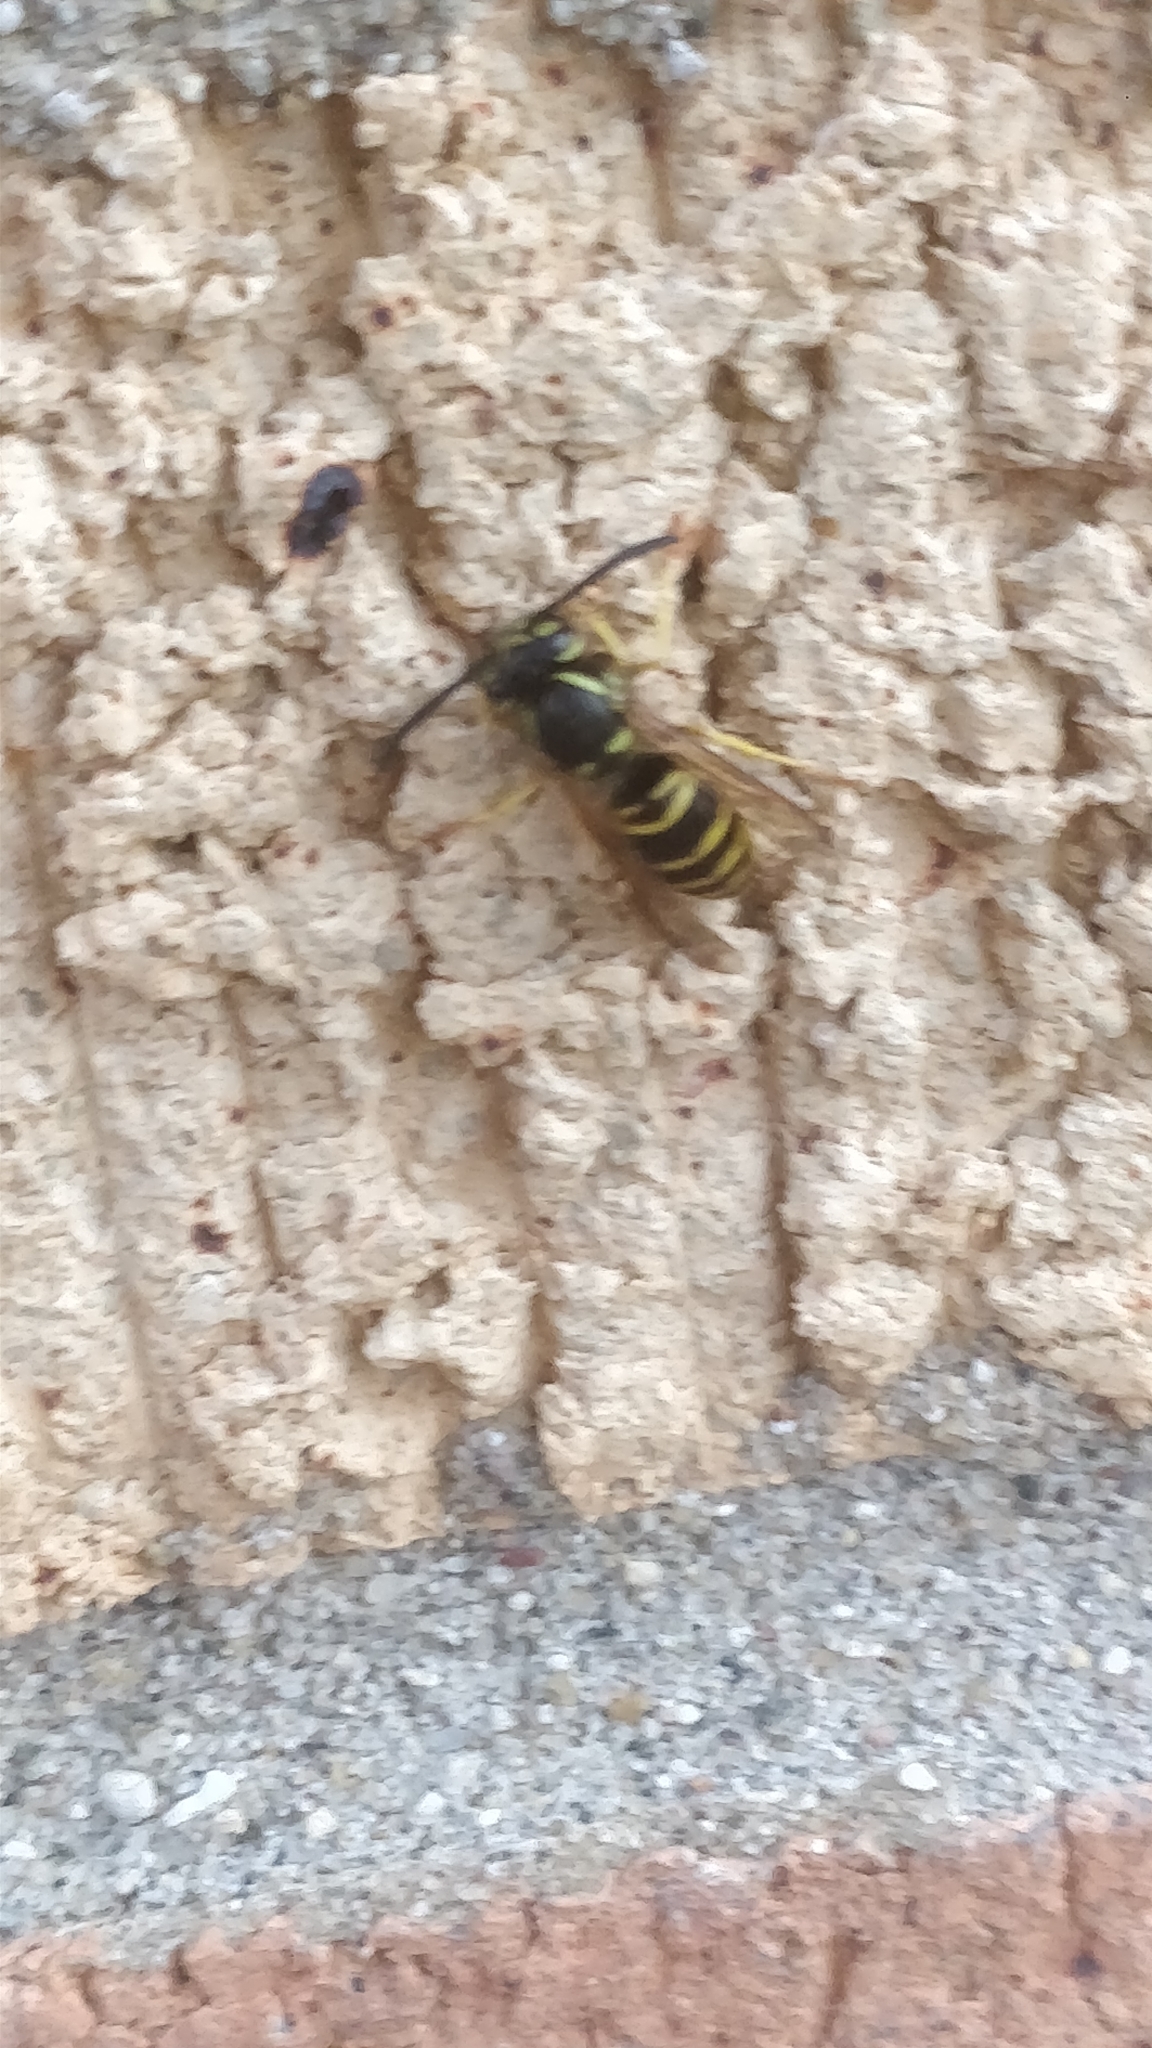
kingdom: Animalia
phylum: Arthropoda
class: Insecta
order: Hymenoptera
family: Vespidae
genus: Vespula
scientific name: Vespula maculifrons
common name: Eastern yellowjacket
